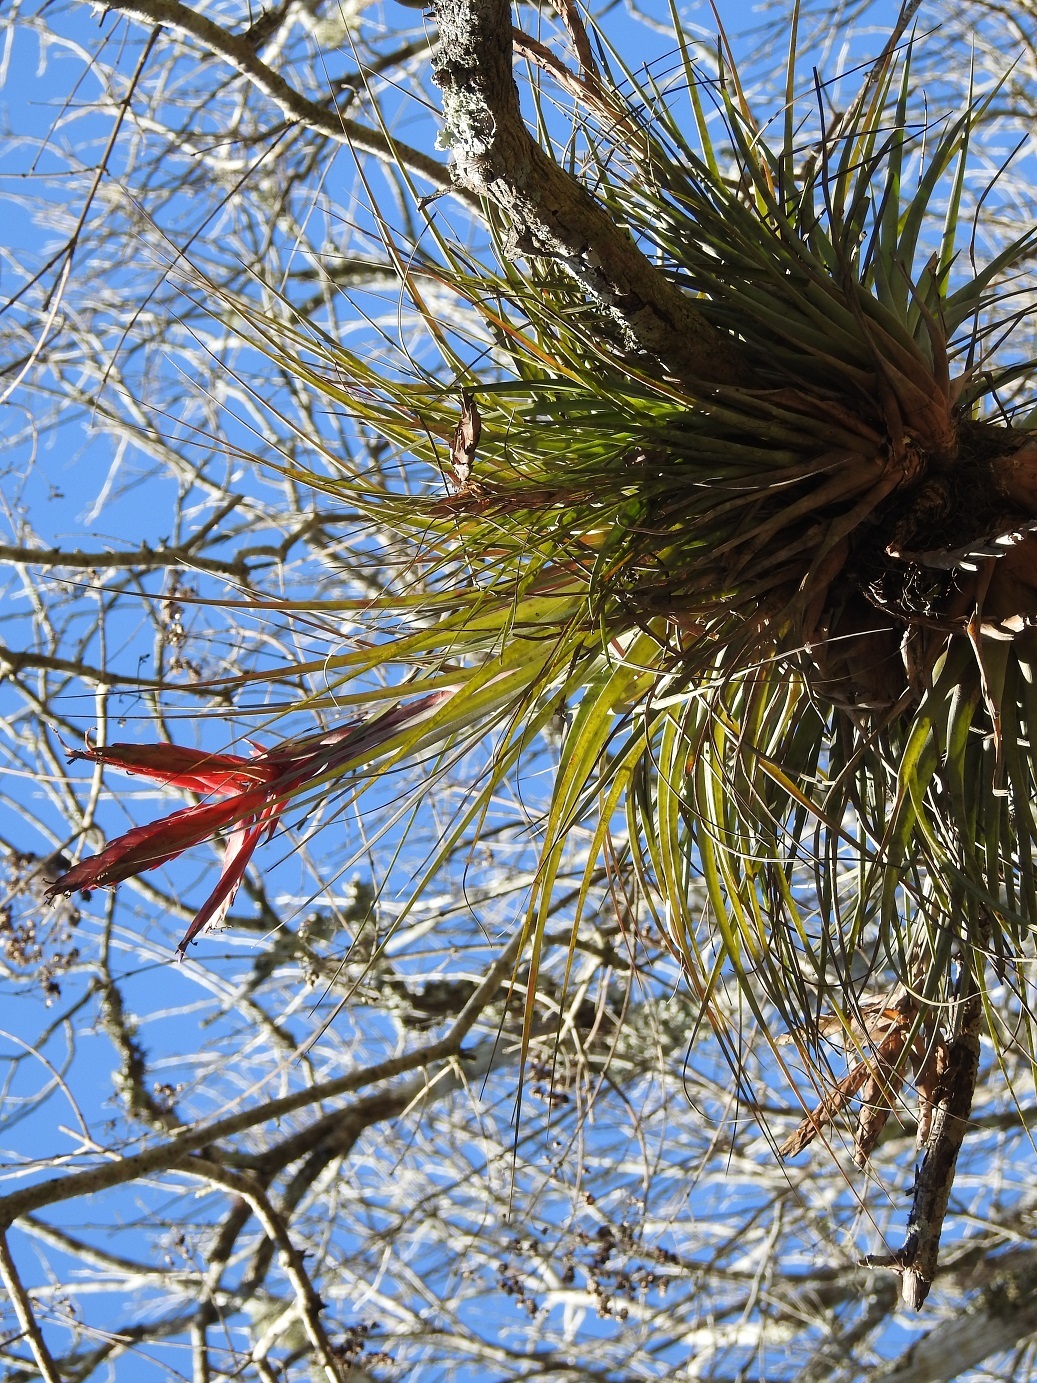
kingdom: Plantae
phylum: Tracheophyta
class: Liliopsida
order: Poales
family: Bromeliaceae
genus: Tillandsia
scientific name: Tillandsia zoquensis
